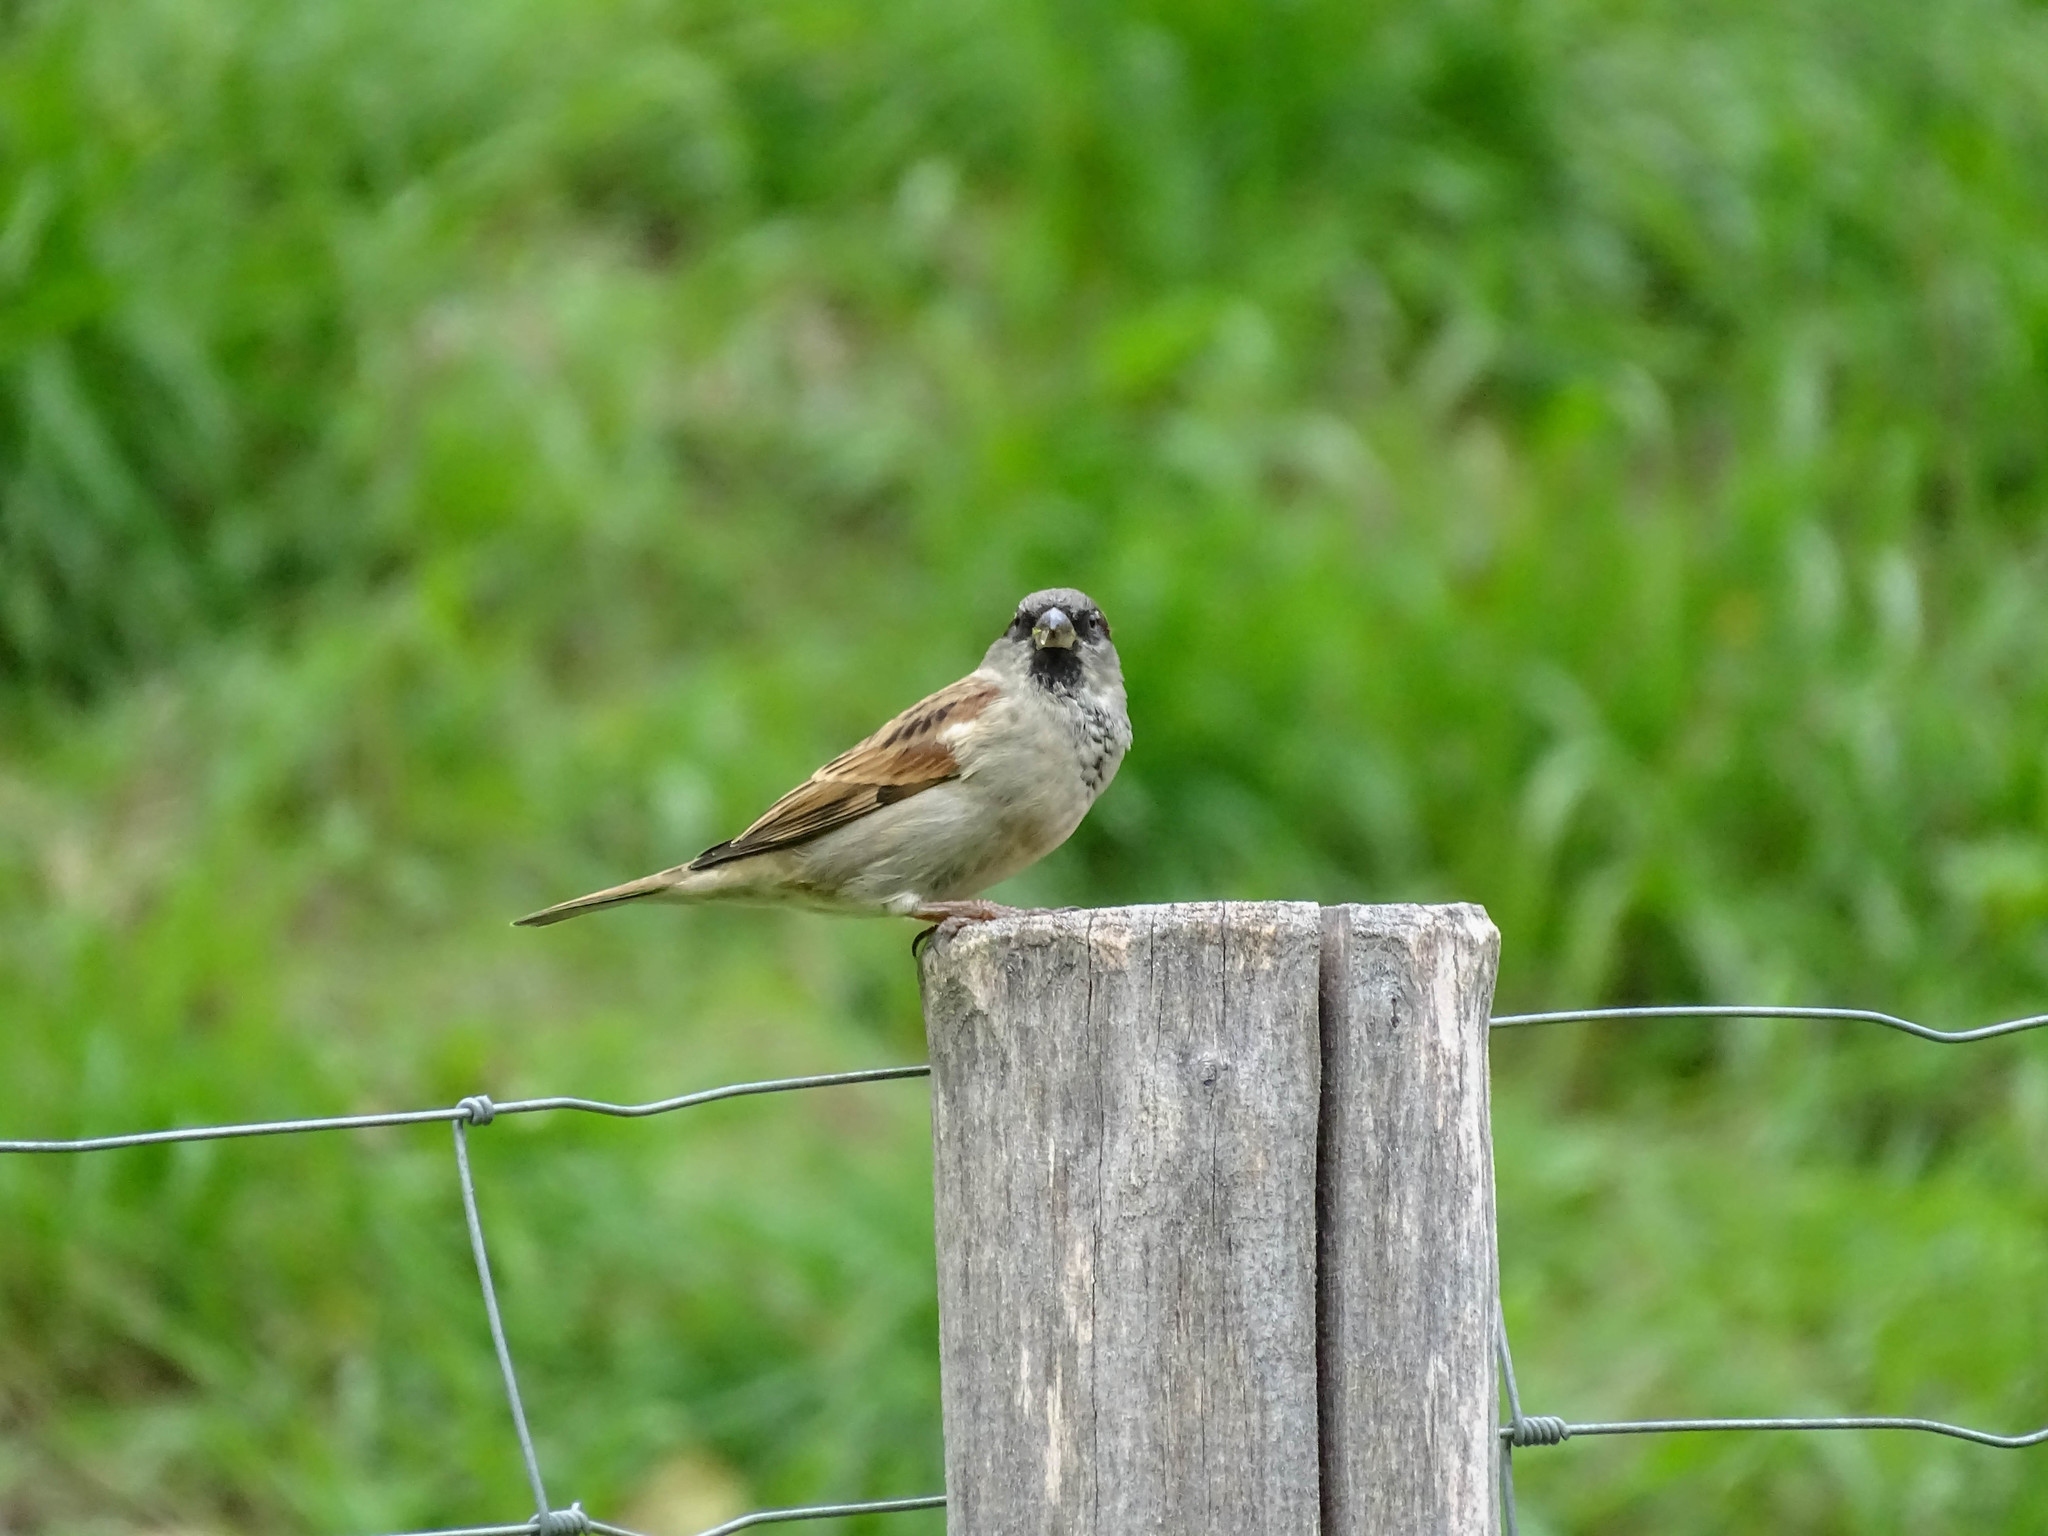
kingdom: Animalia
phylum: Chordata
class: Aves
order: Passeriformes
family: Passeridae
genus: Passer
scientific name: Passer domesticus
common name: House sparrow
